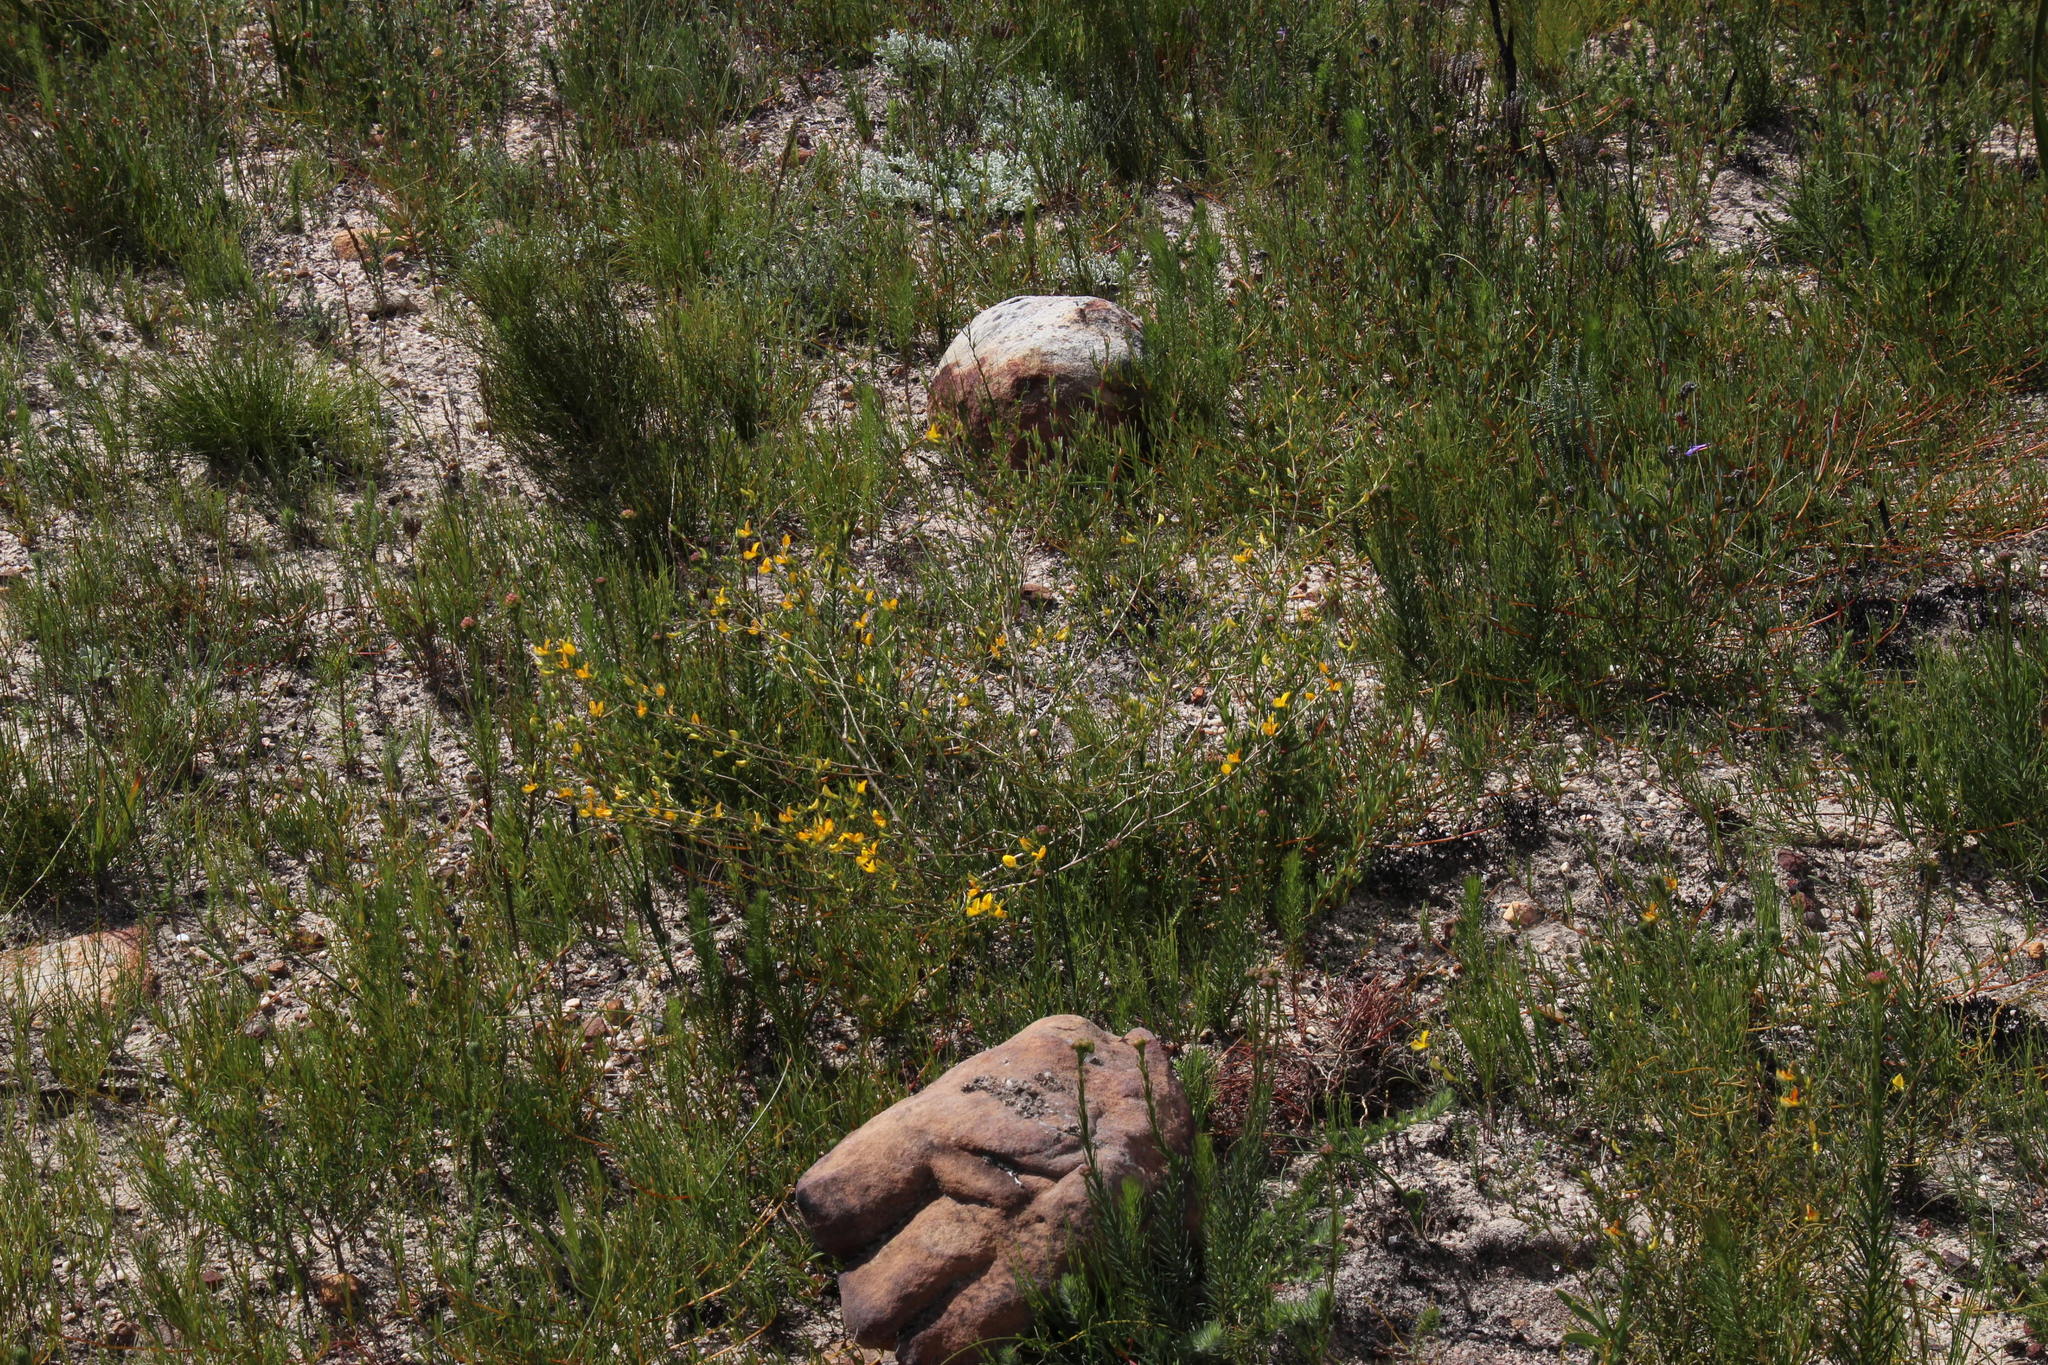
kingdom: Plantae
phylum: Tracheophyta
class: Magnoliopsida
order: Fabales
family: Fabaceae
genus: Aspalathus
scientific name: Aspalathus abietina
